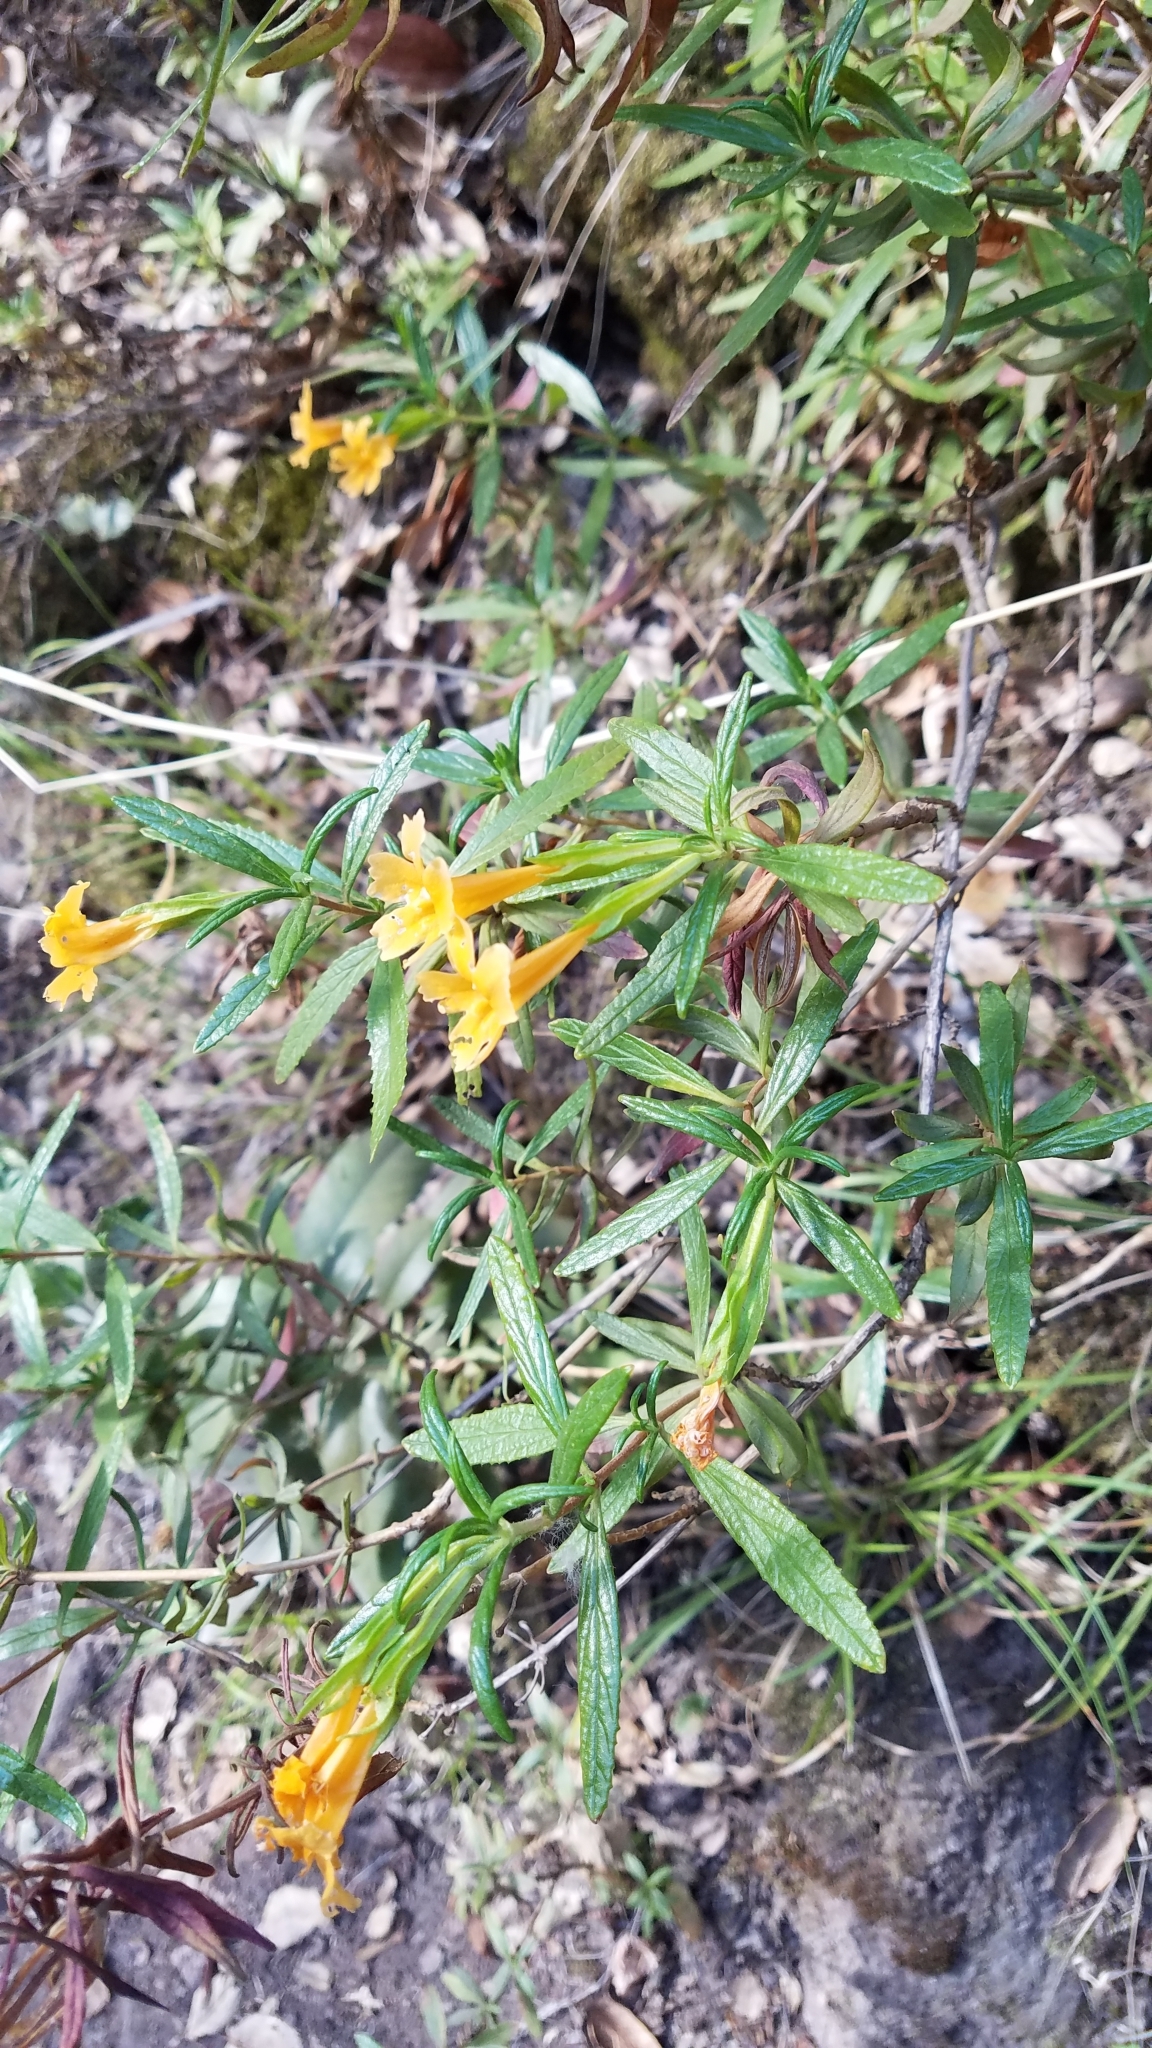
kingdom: Plantae
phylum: Tracheophyta
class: Magnoliopsida
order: Lamiales
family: Phrymaceae
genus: Diplacus
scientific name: Diplacus aurantiacus
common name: Bush monkey-flower
